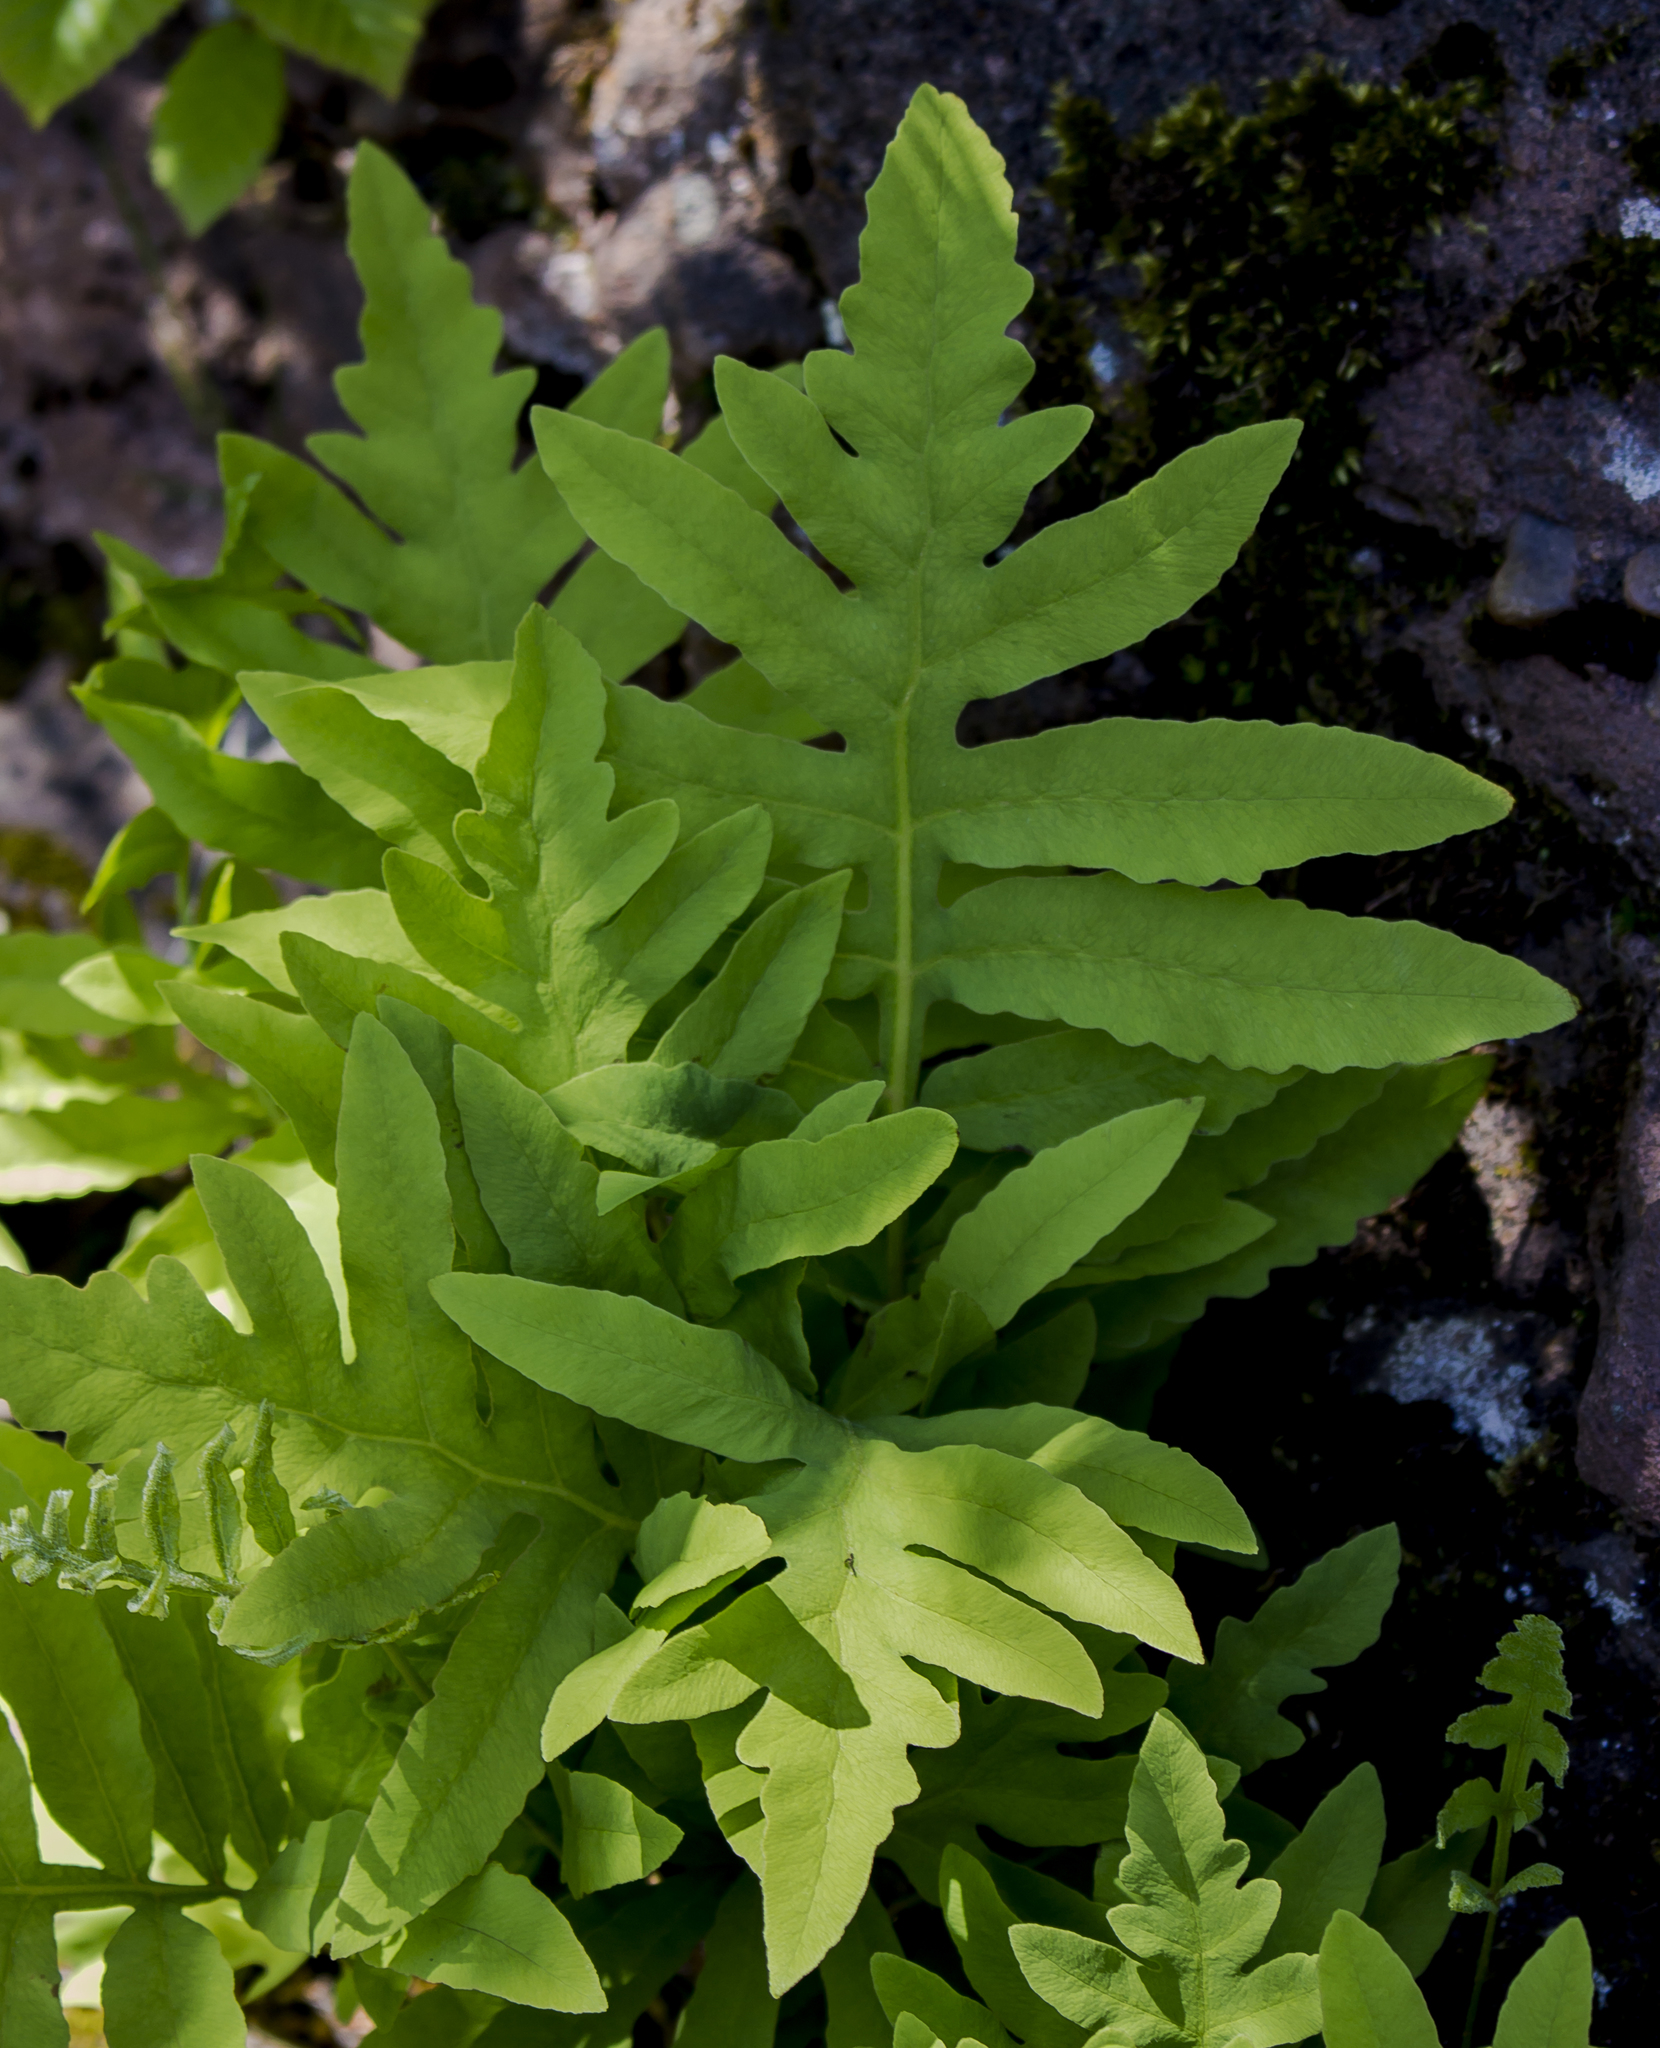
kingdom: Plantae
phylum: Tracheophyta
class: Polypodiopsida
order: Polypodiales
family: Onocleaceae
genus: Onoclea
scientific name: Onoclea sensibilis
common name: Sensitive fern
